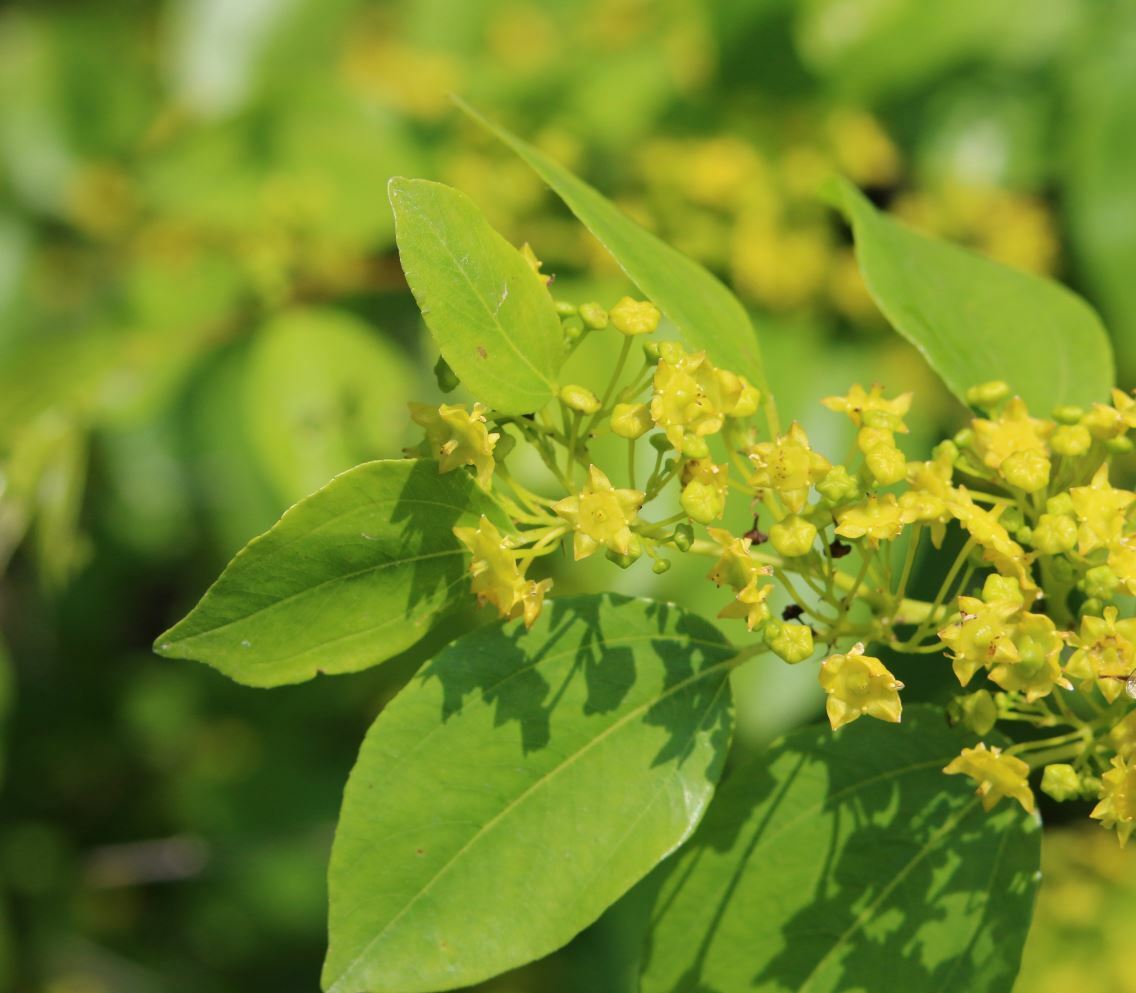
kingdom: Plantae
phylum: Tracheophyta
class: Magnoliopsida
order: Rosales
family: Rhamnaceae
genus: Paliurus
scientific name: Paliurus spina-christi
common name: Jeruselem thorn
